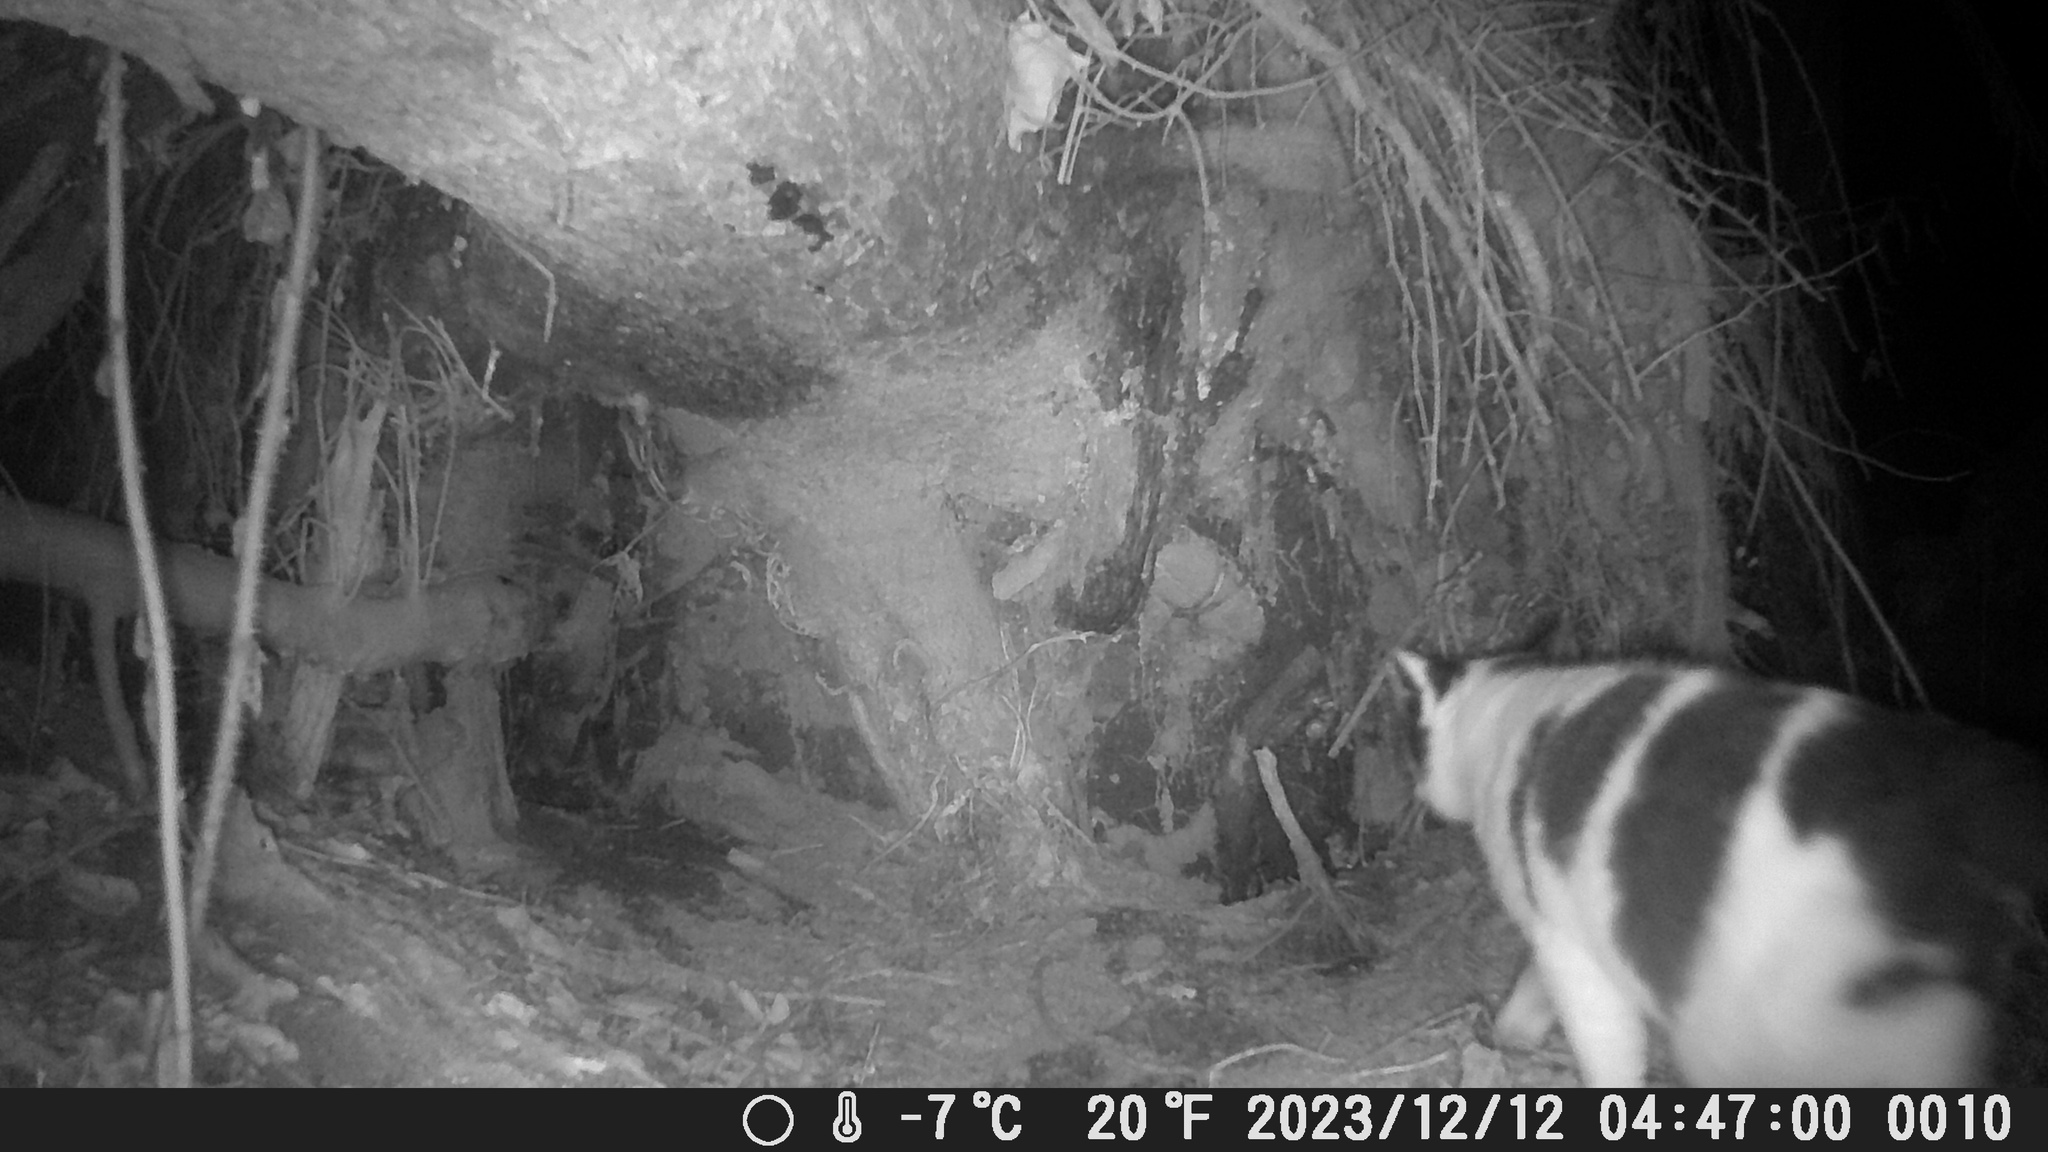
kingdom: Animalia
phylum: Chordata
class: Mammalia
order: Carnivora
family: Felidae
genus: Felis
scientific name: Felis catus
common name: Domestic cat
